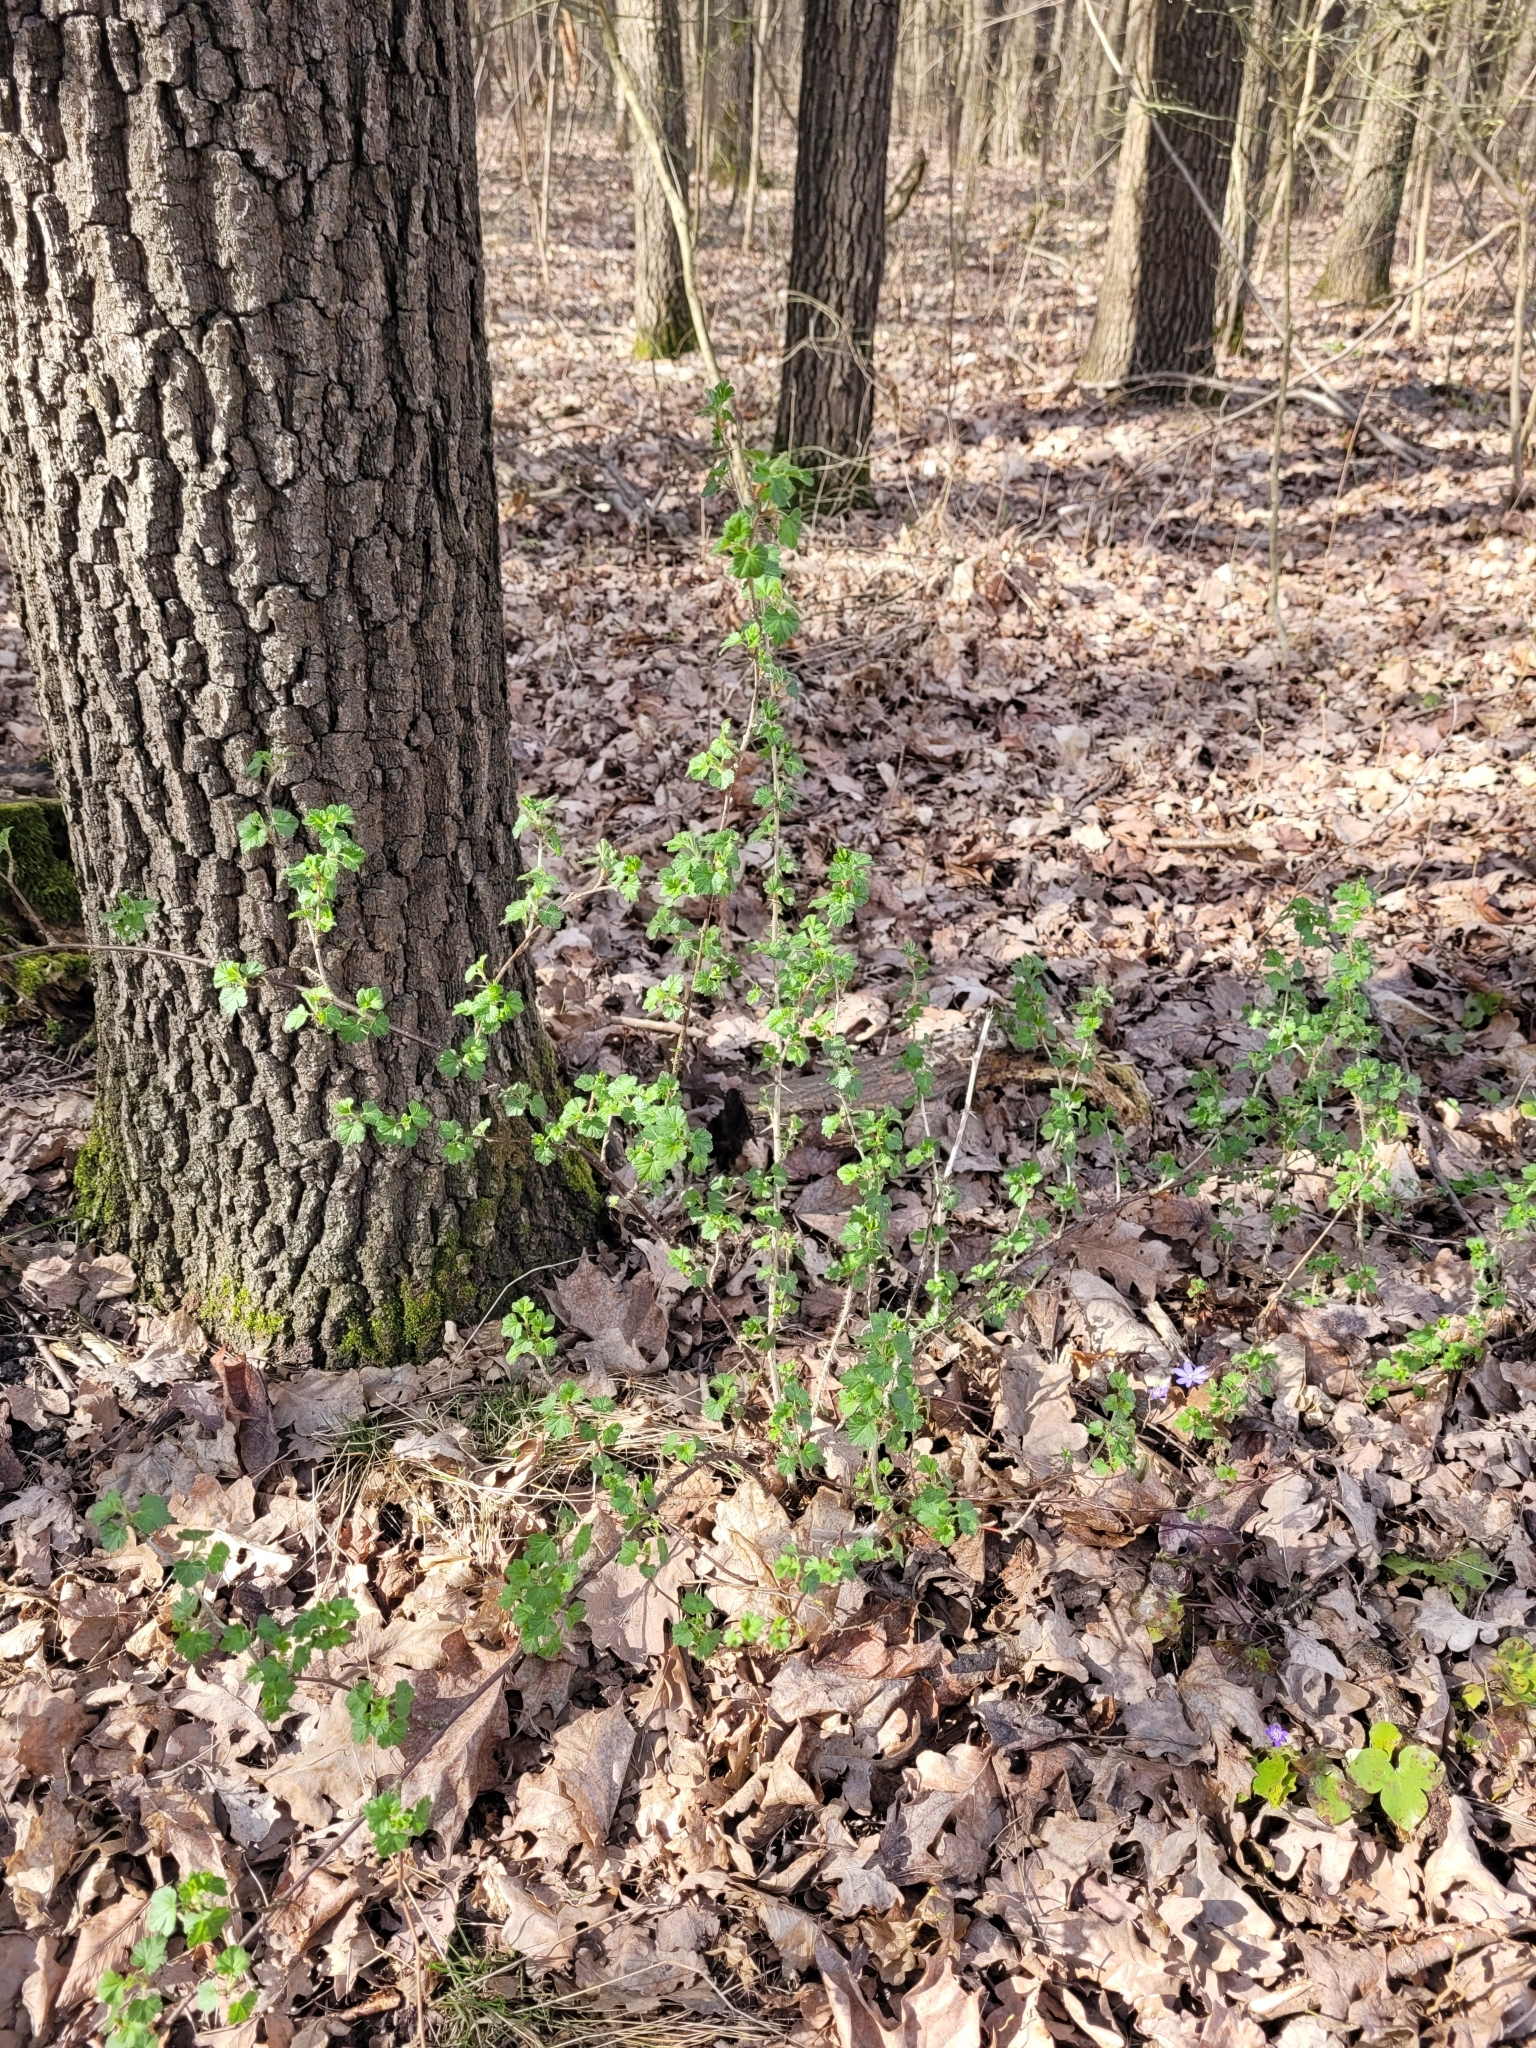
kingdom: Plantae
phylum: Tracheophyta
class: Magnoliopsida
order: Saxifragales
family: Grossulariaceae
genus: Ribes
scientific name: Ribes uva-crispa
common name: Gooseberry
